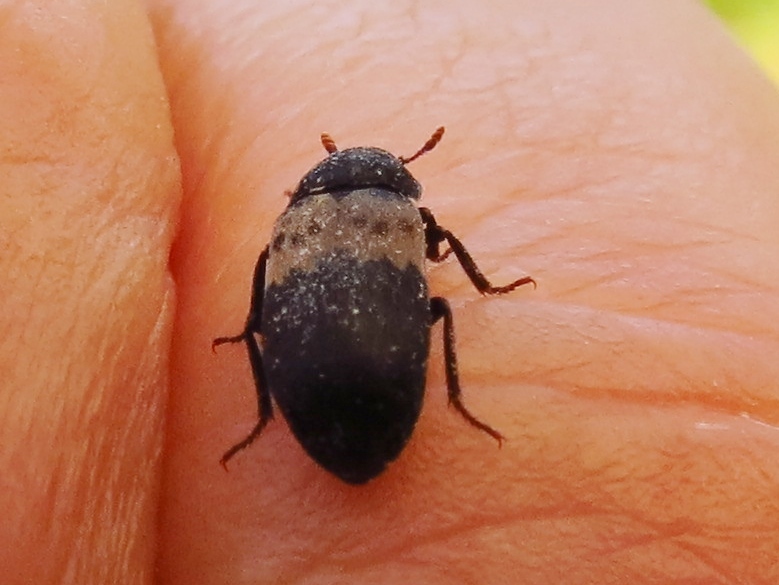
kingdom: Animalia
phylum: Arthropoda
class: Insecta
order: Coleoptera
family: Dermestidae
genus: Dermestes
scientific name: Dermestes lardarius
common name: Larder beetle
